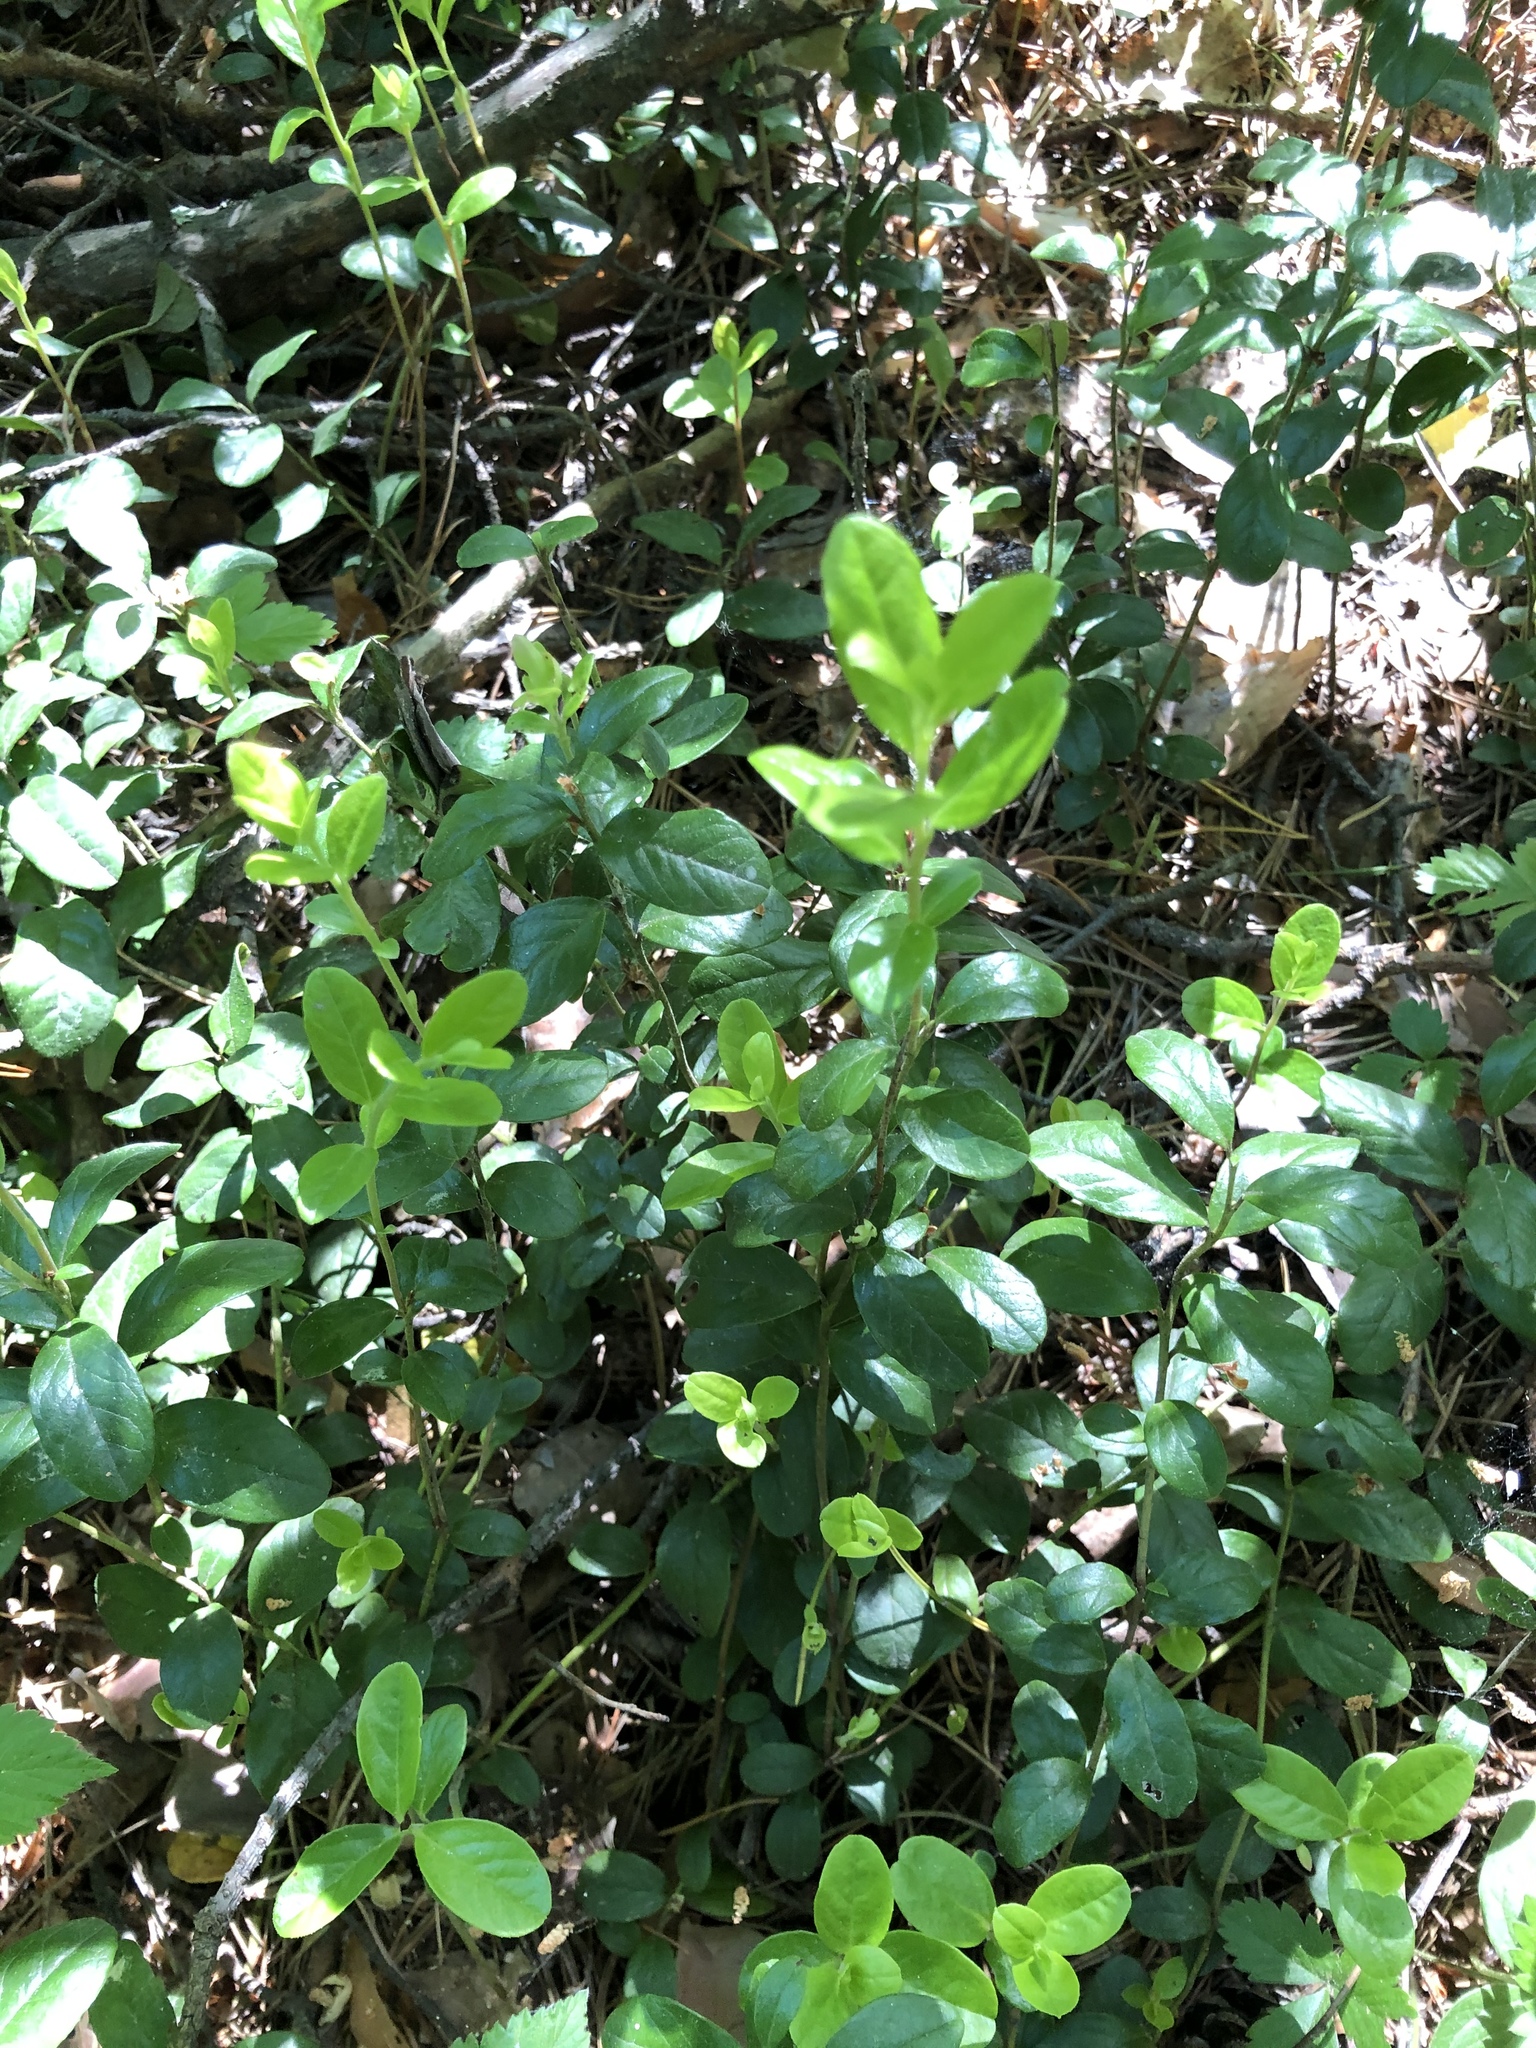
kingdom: Plantae
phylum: Tracheophyta
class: Magnoliopsida
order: Ericales
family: Ericaceae
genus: Vaccinium
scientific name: Vaccinium vitis-idaea
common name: Cowberry
